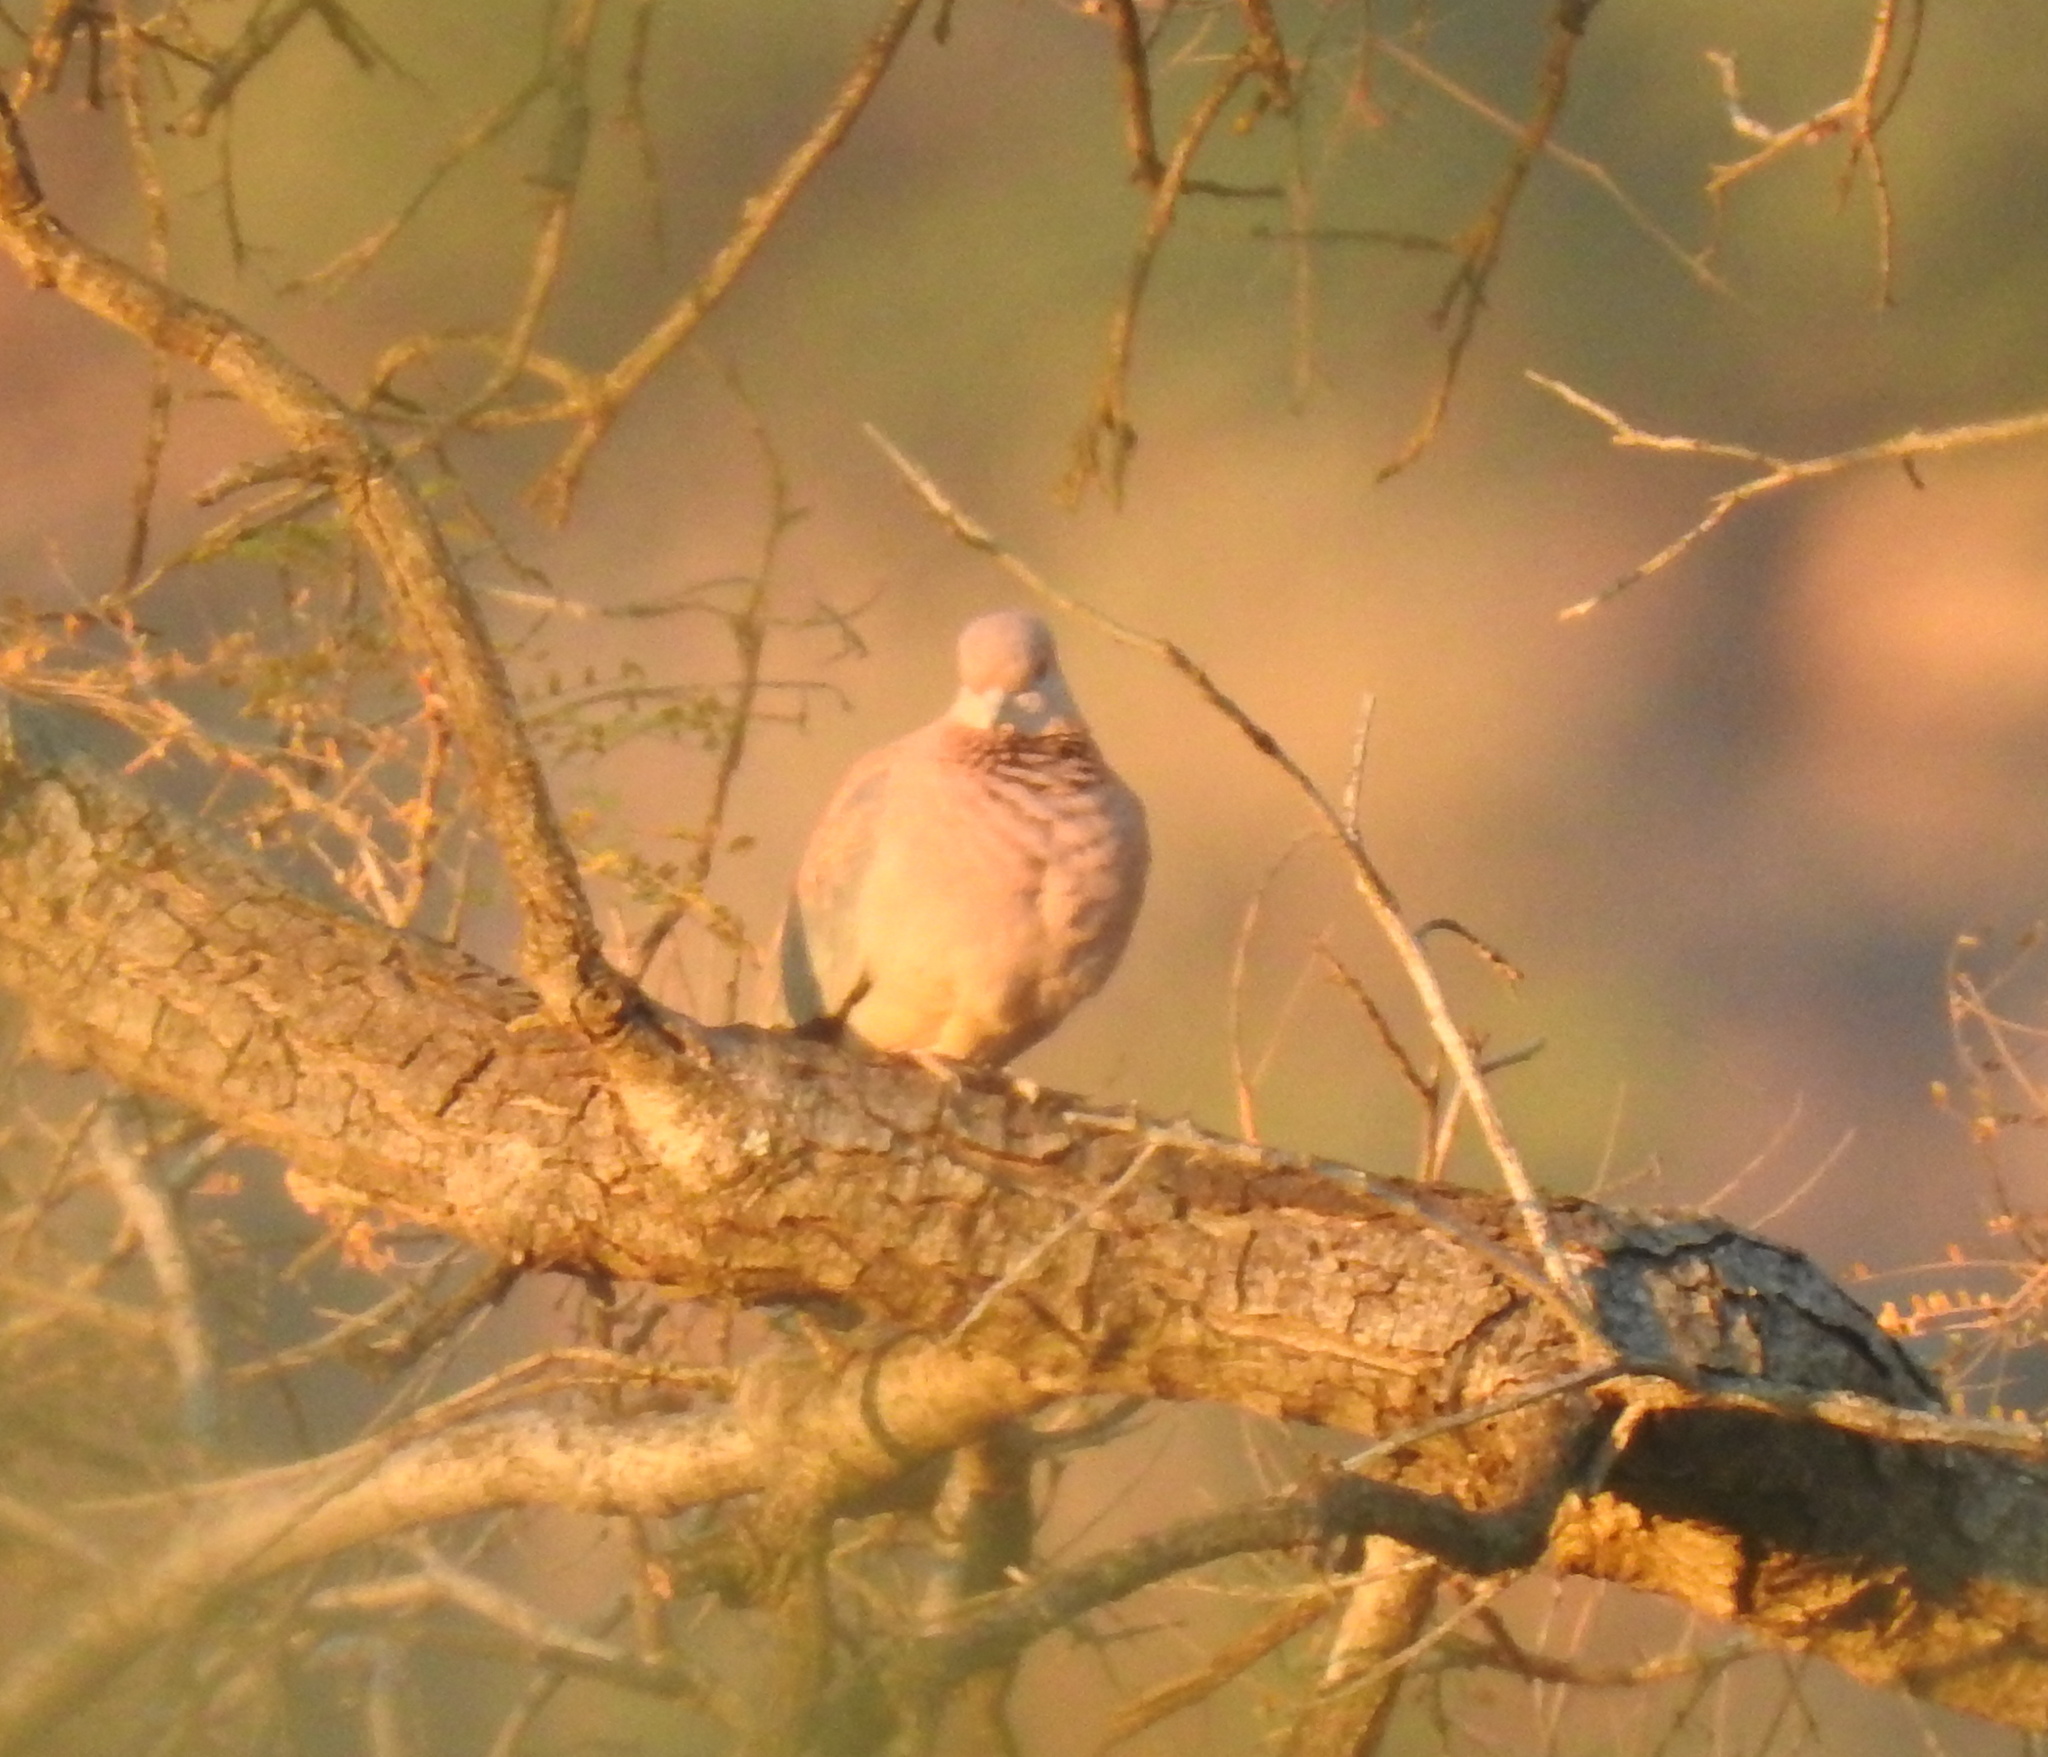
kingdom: Animalia
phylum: Chordata
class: Aves
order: Columbiformes
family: Columbidae
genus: Spilopelia
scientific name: Spilopelia senegalensis
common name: Laughing dove
